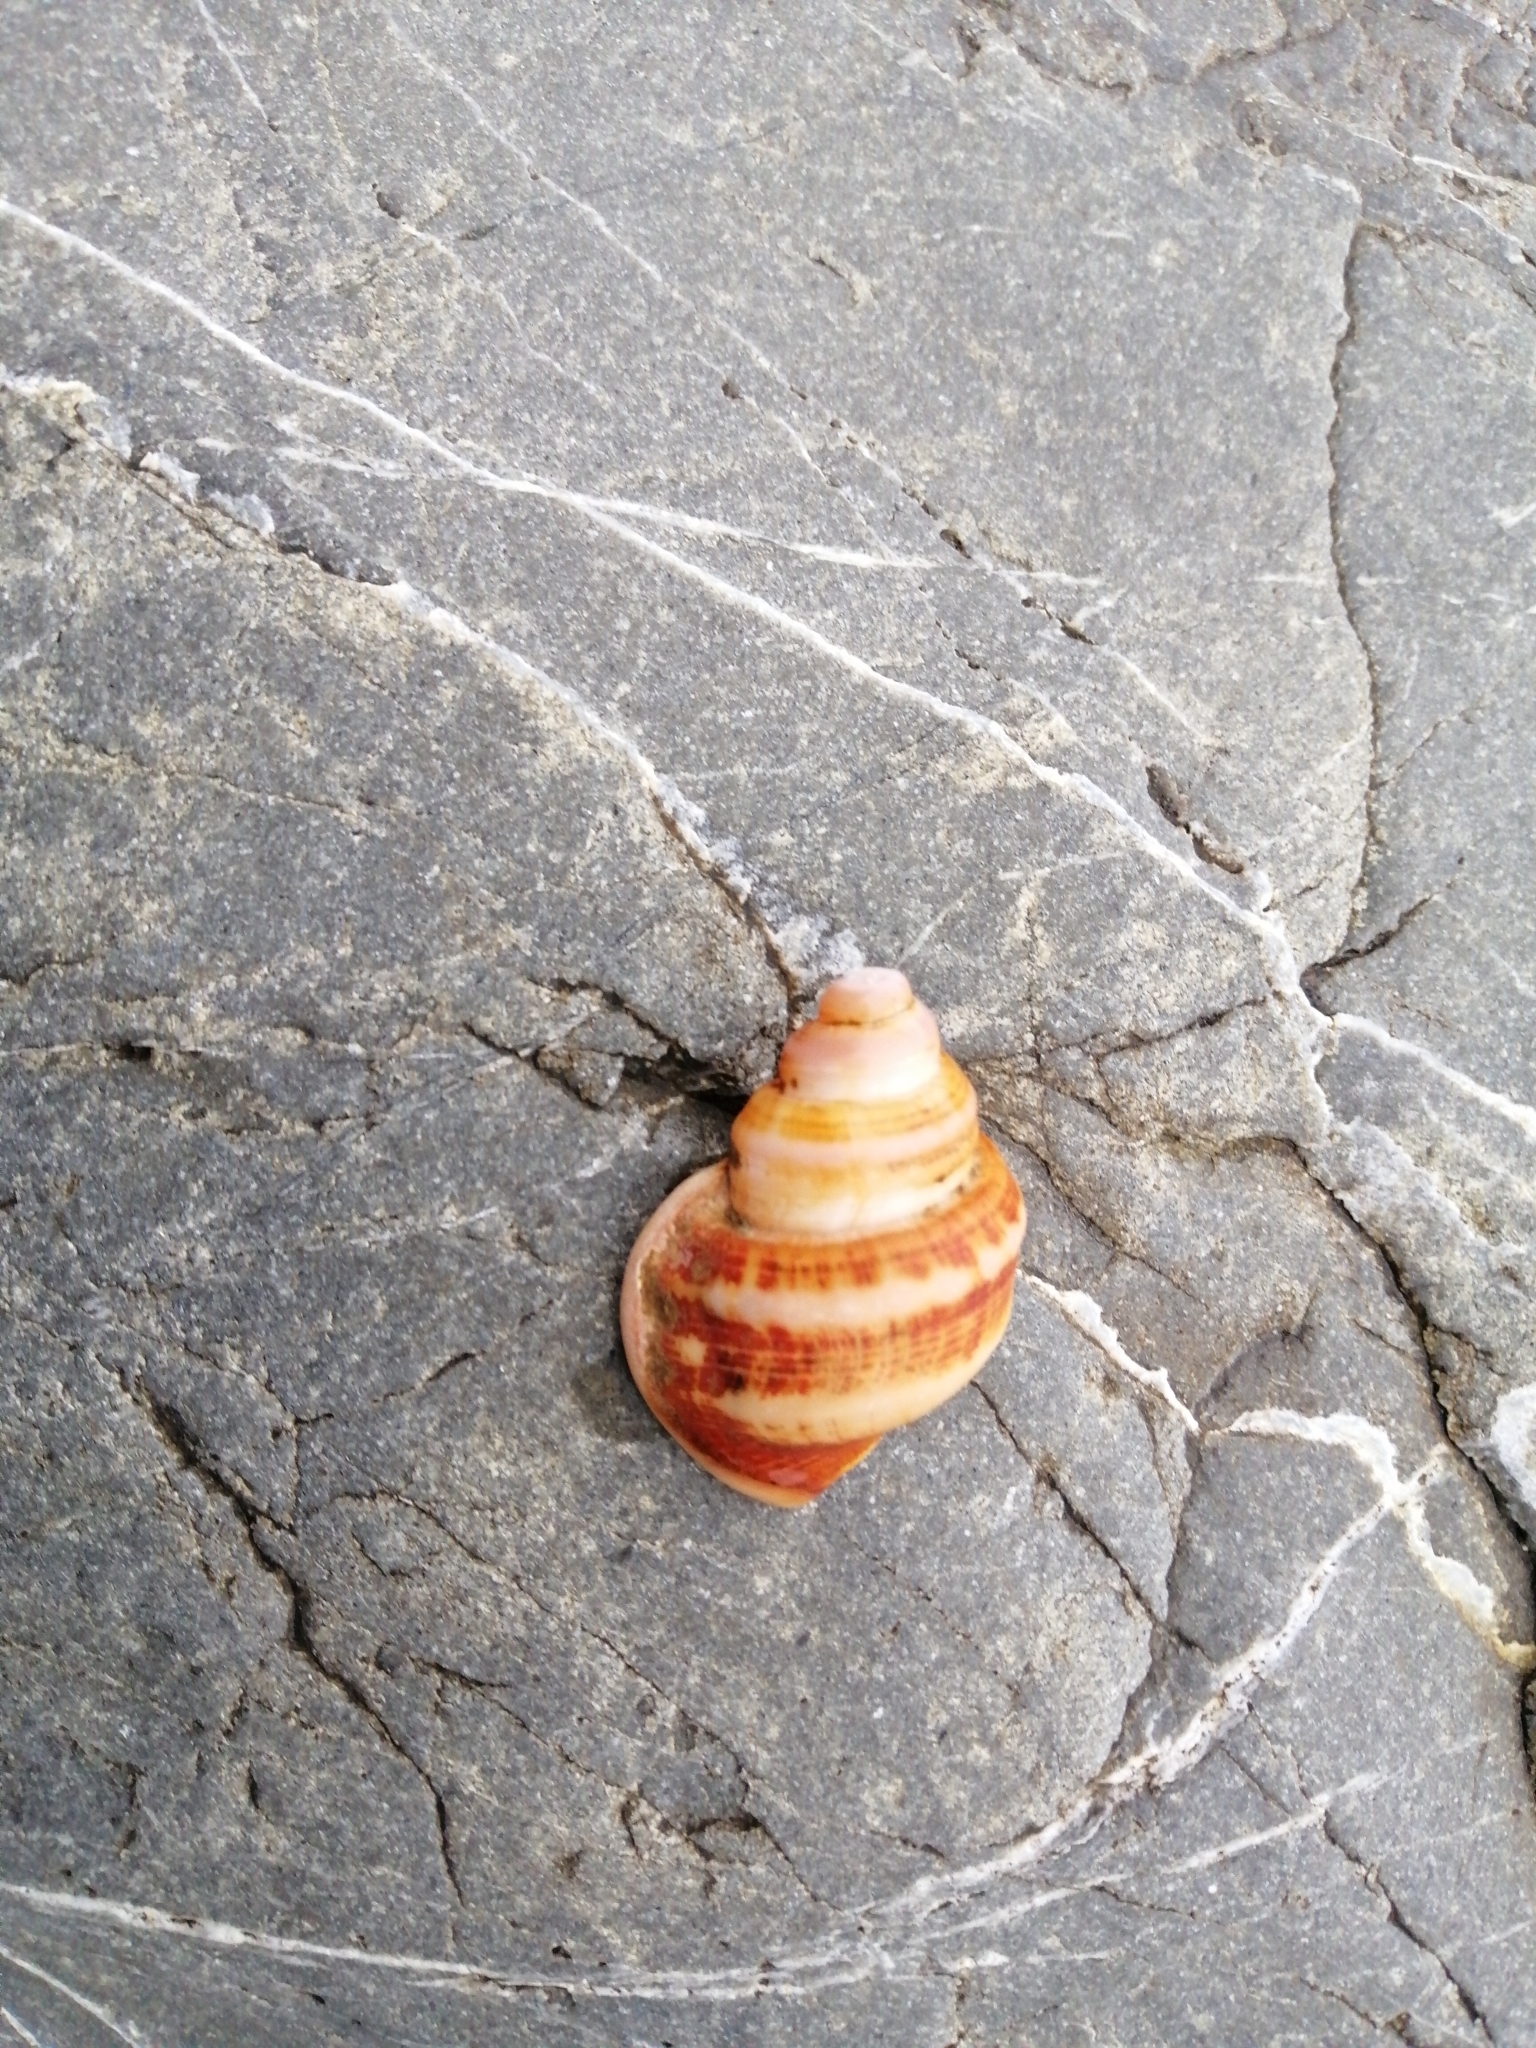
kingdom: Animalia
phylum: Mollusca
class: Gastropoda
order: Littorinimorpha
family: Struthiolariidae
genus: Pelicaria
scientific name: Pelicaria vermis
